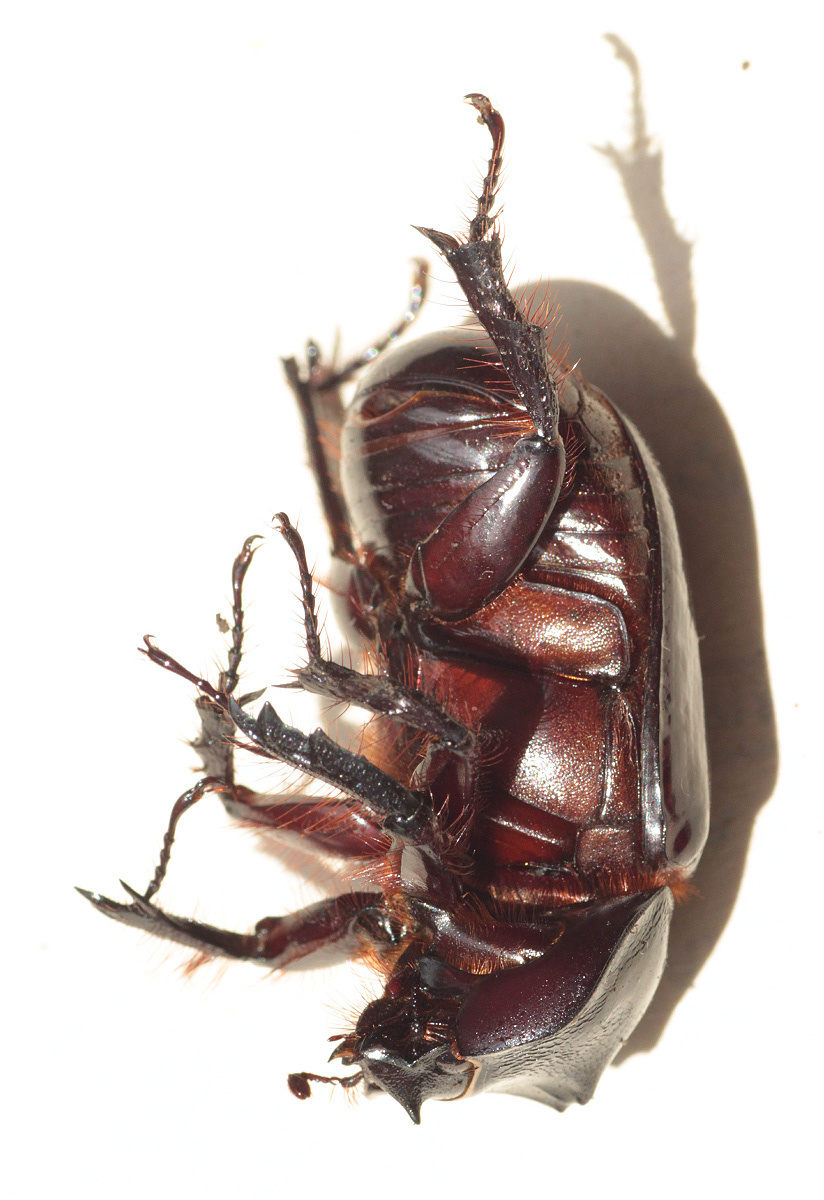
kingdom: Animalia
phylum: Arthropoda
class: Insecta
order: Coleoptera
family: Scarabaeidae
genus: Heterogomphus
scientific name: Heterogomphus dilaticollis
